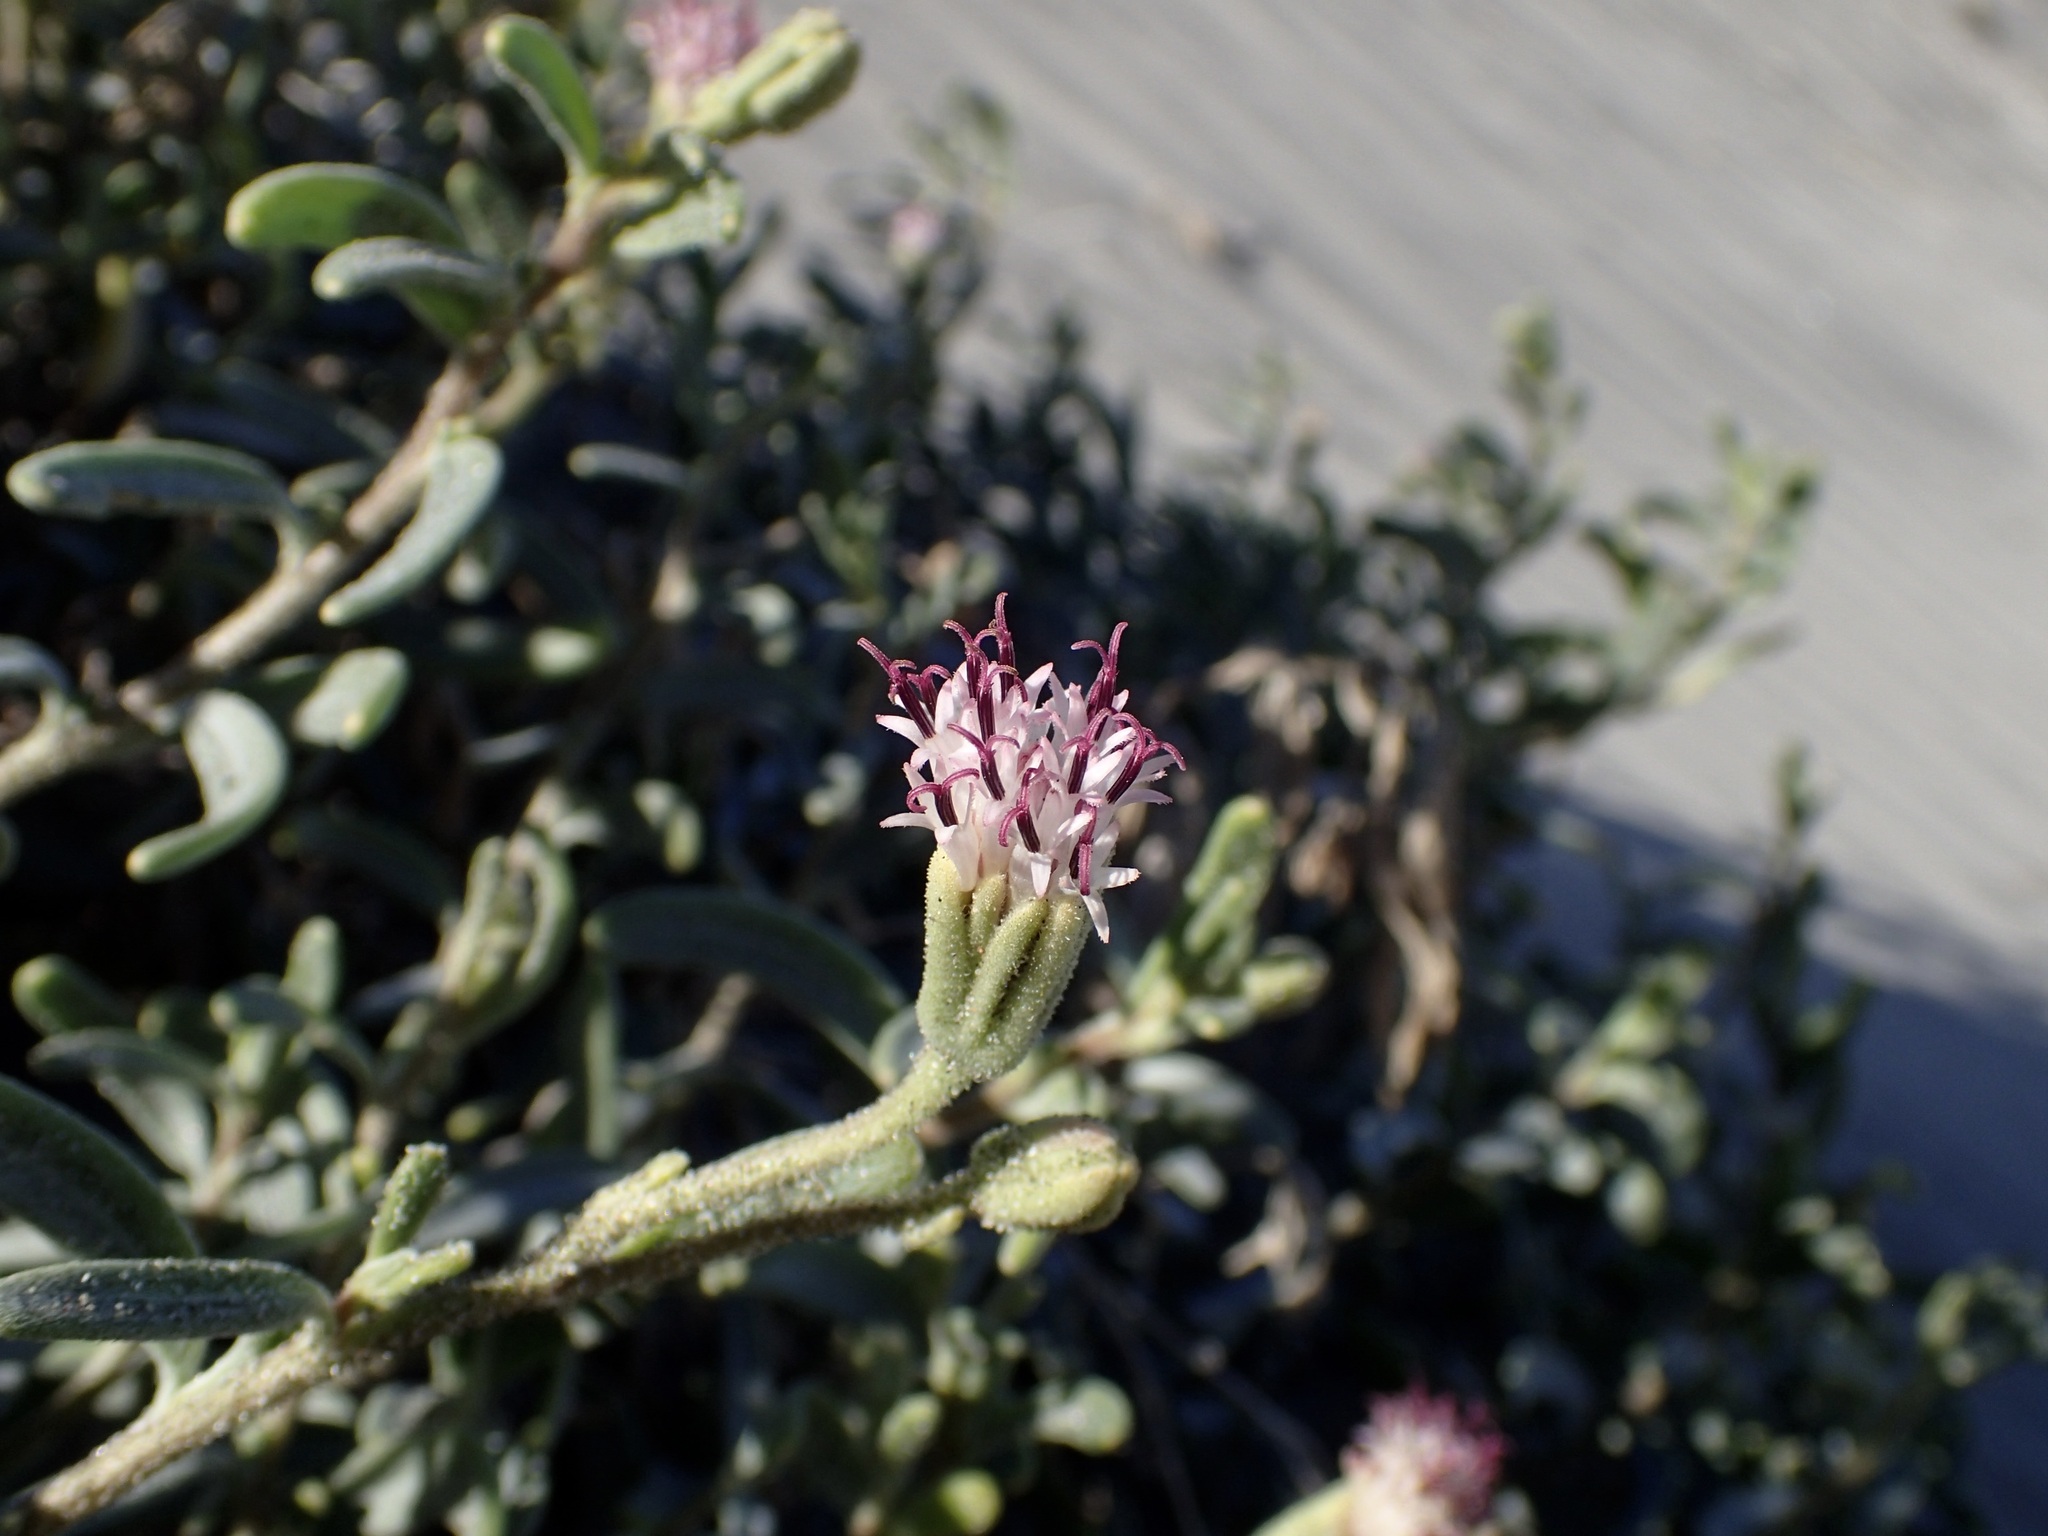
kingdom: Plantae
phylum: Tracheophyta
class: Magnoliopsida
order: Asterales
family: Asteraceae
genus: Palafoxia
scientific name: Palafoxia linearis
